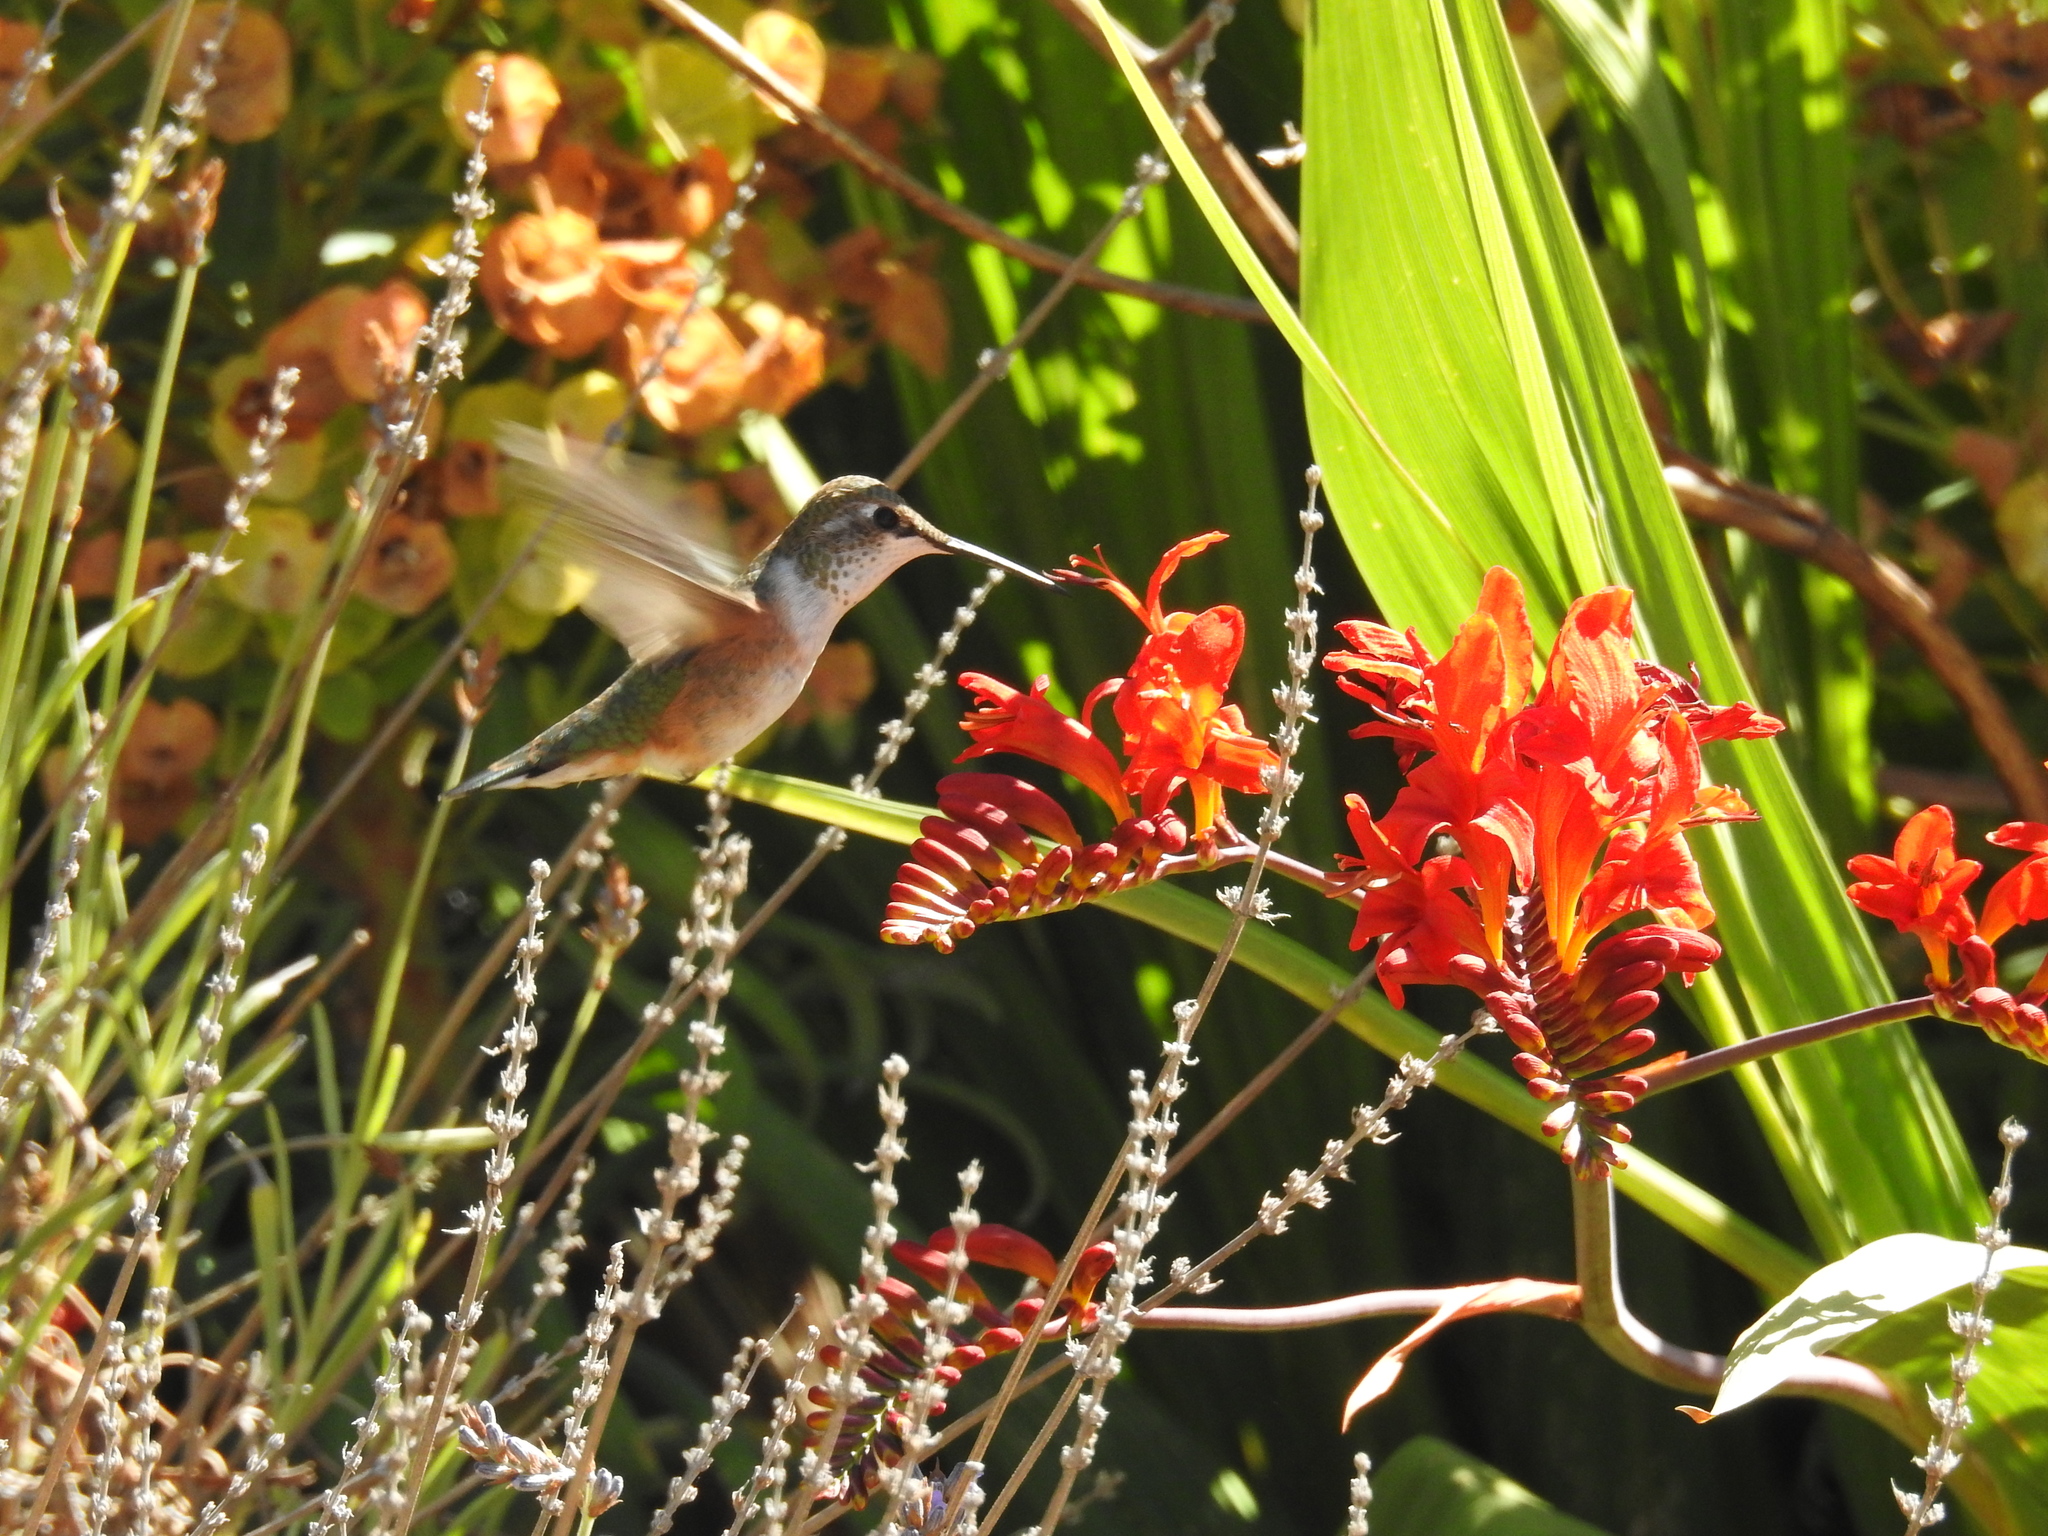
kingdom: Animalia
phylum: Chordata
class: Aves
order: Apodiformes
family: Trochilidae
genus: Selasphorus
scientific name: Selasphorus rufus
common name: Rufous hummingbird
